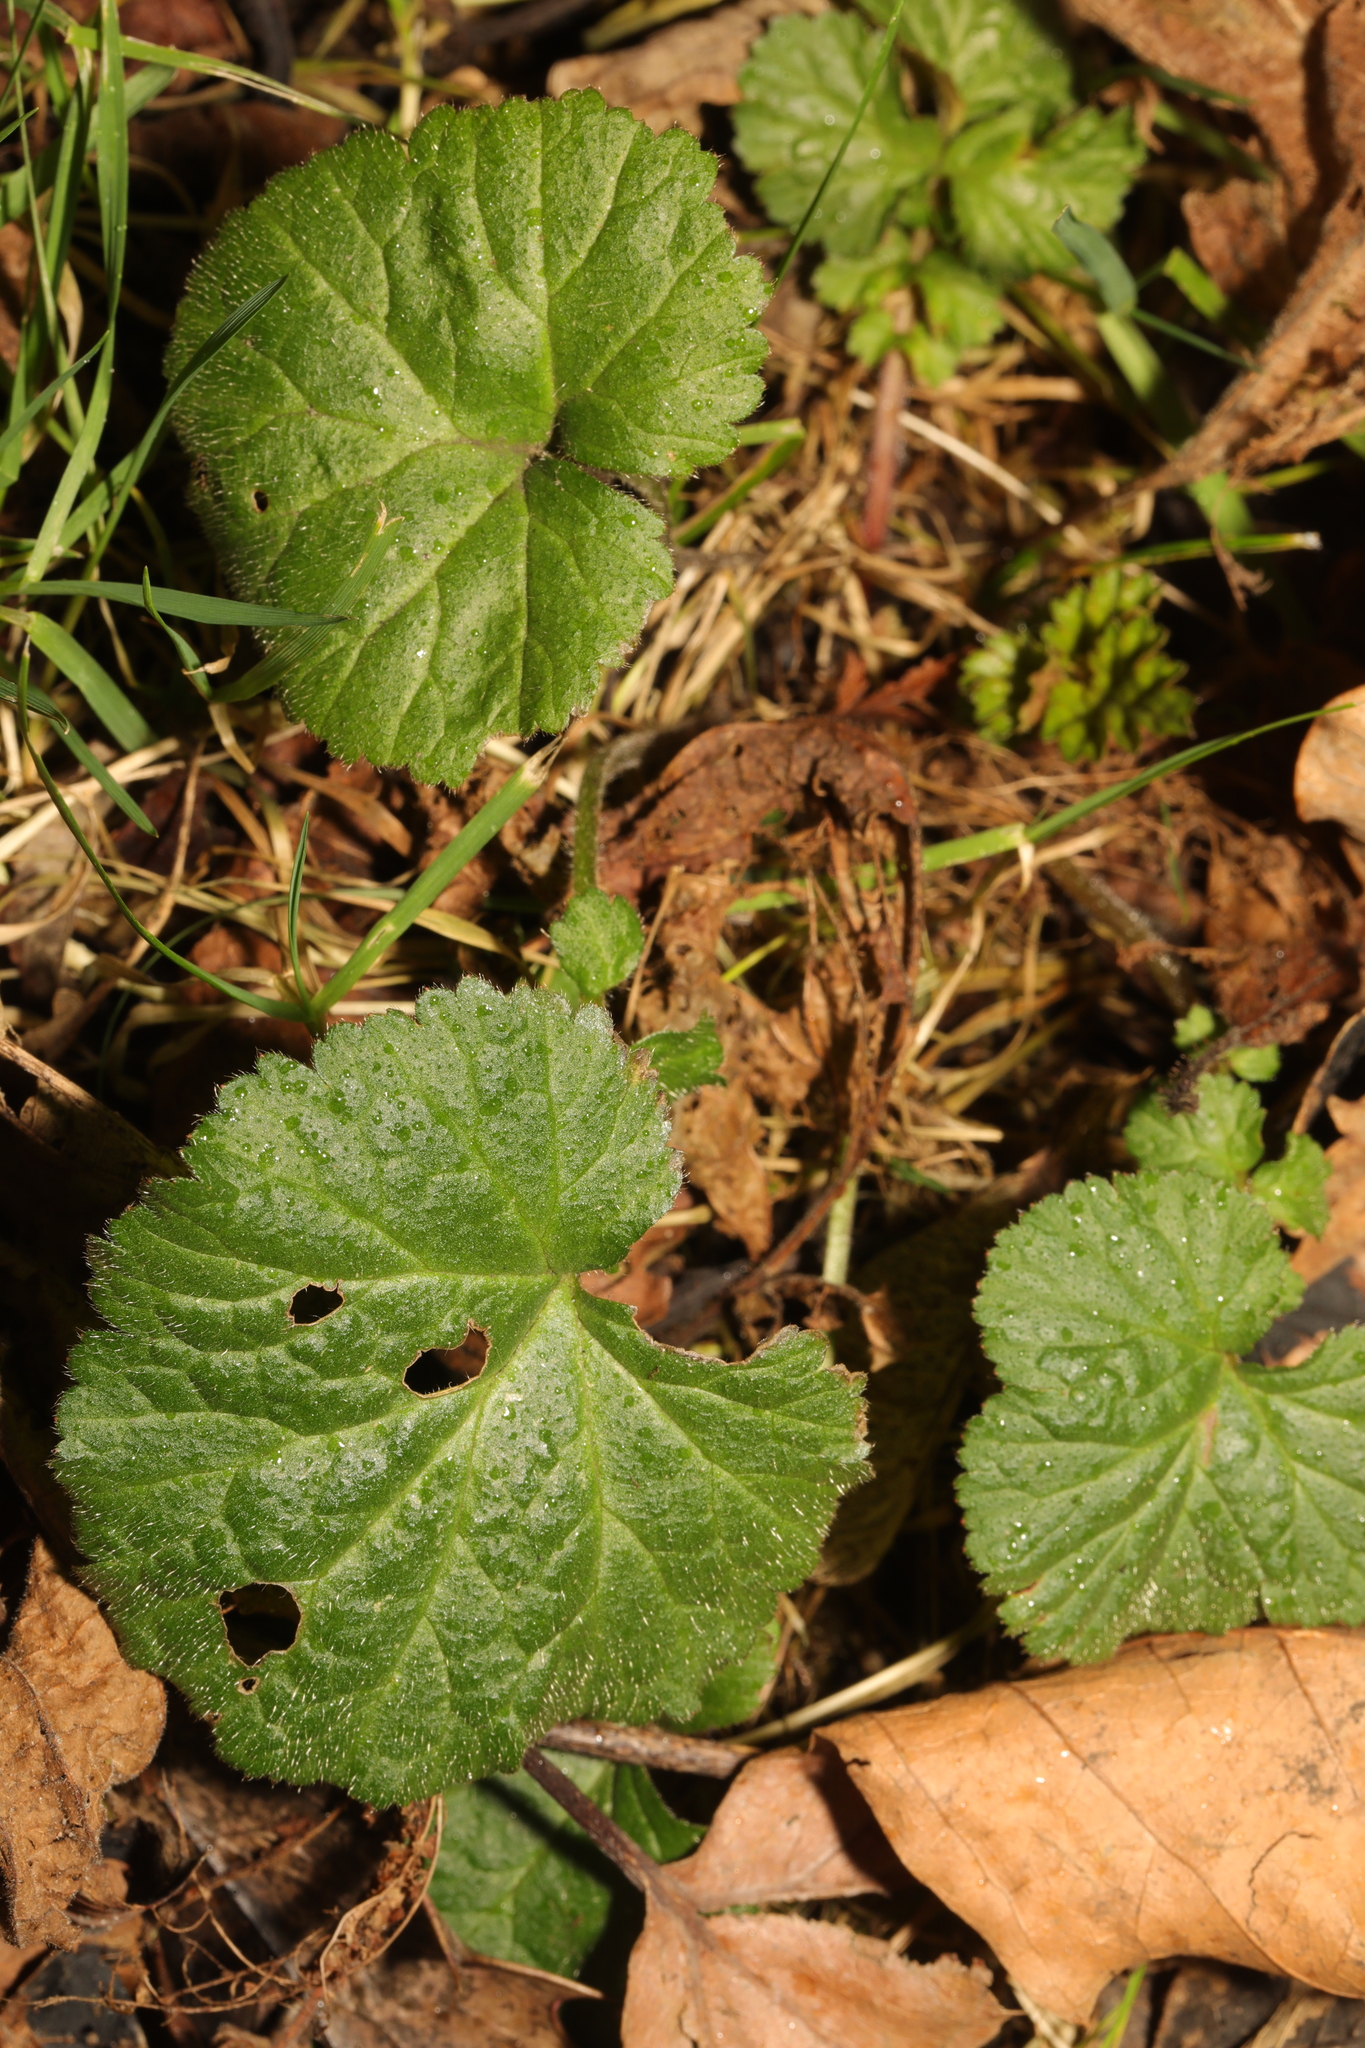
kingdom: Plantae
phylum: Tracheophyta
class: Magnoliopsida
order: Rosales
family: Rosaceae
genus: Geum
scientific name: Geum urbanum
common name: Wood avens
